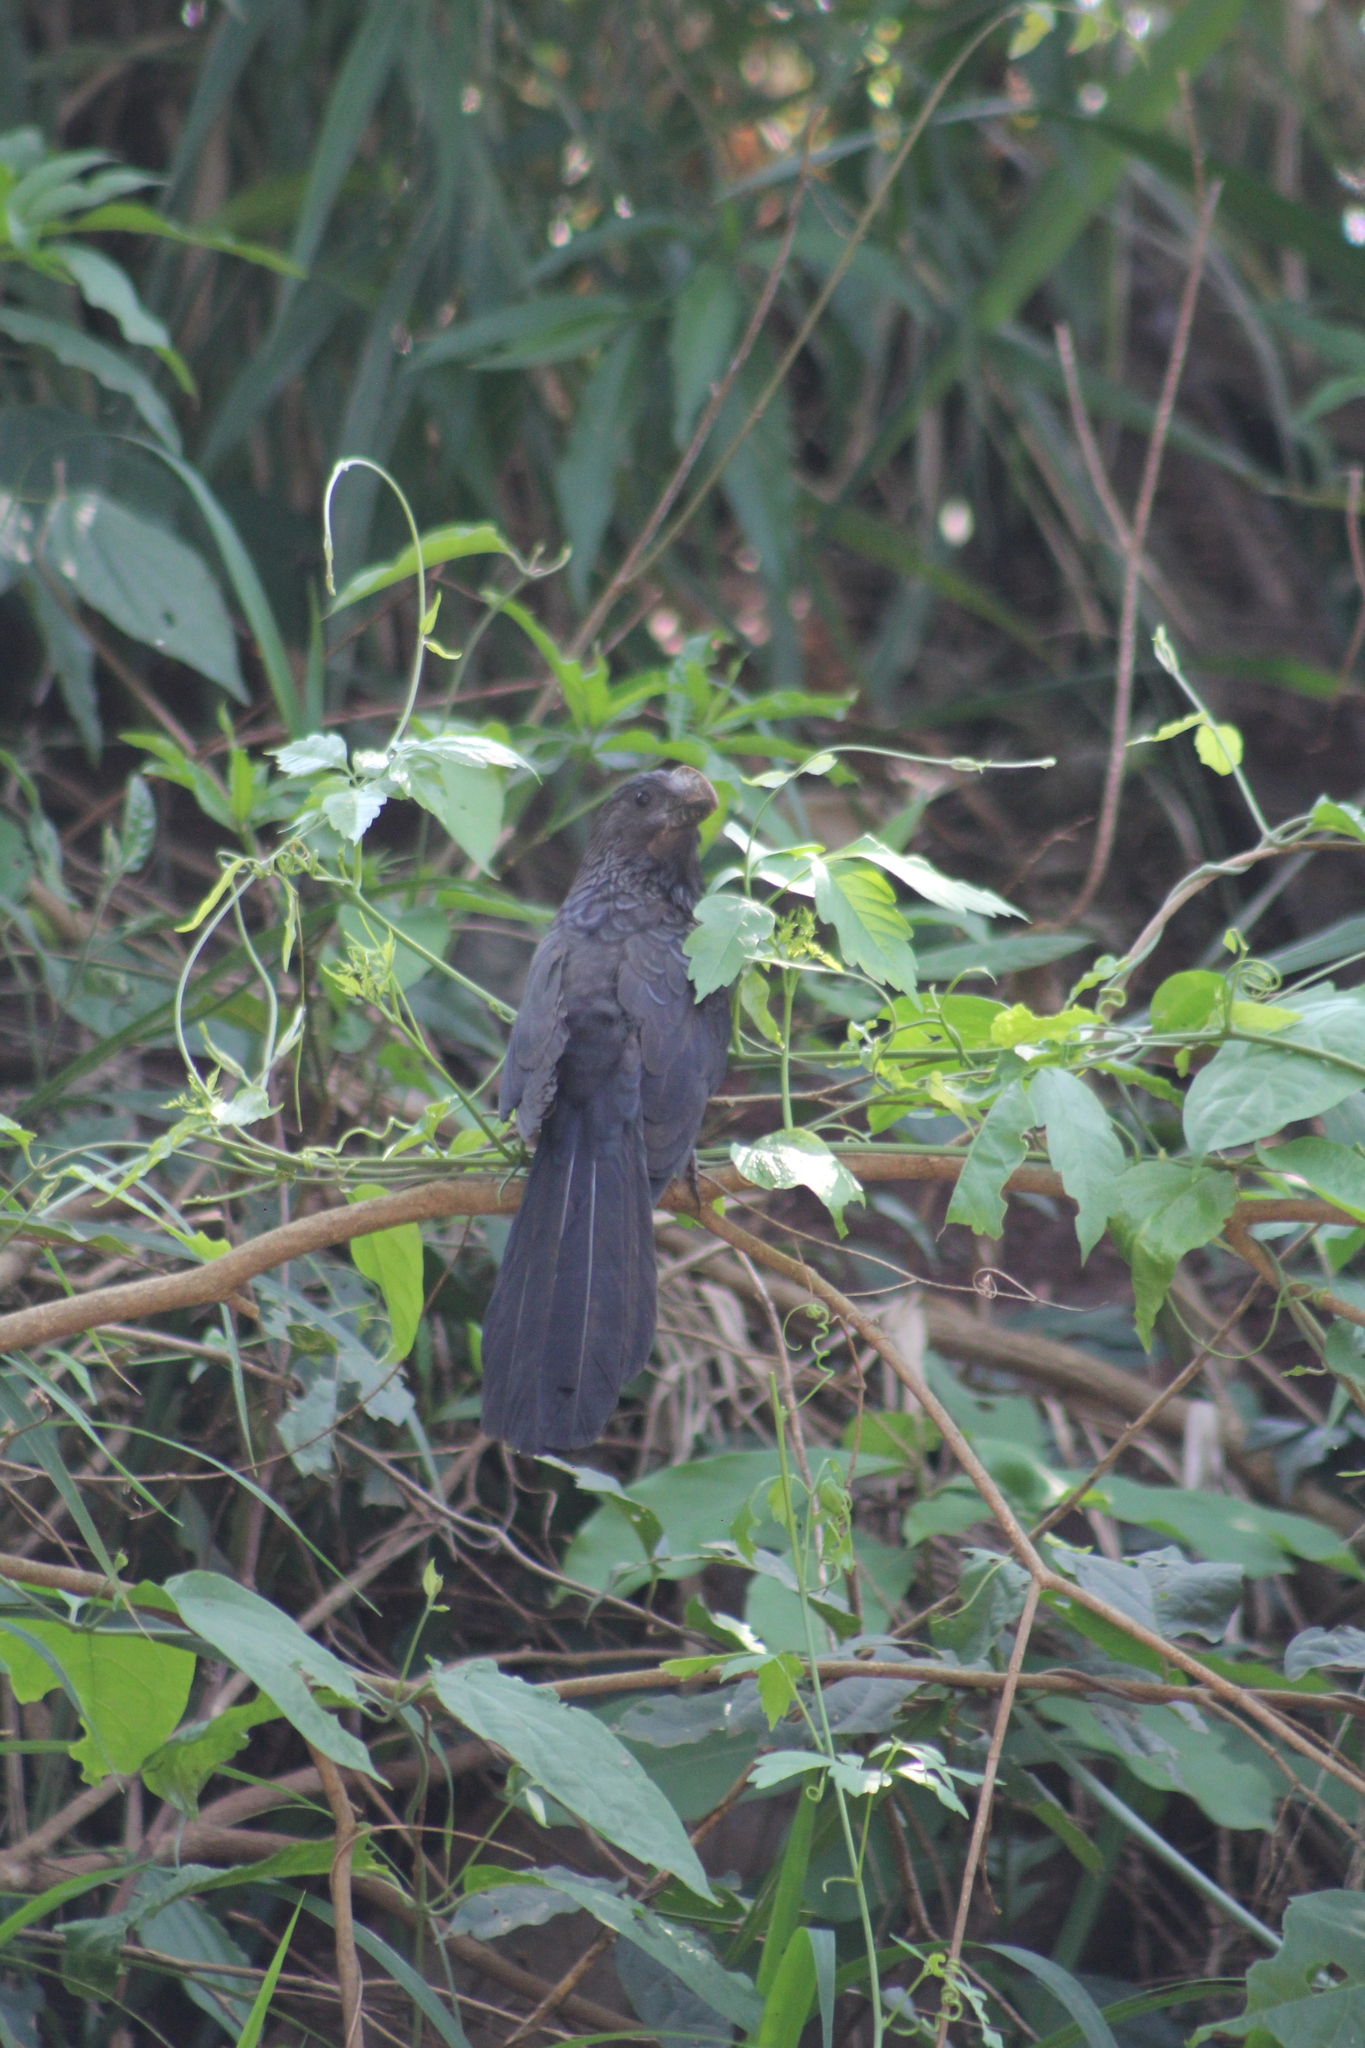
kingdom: Animalia
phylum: Chordata
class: Aves
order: Cuculiformes
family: Cuculidae
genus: Crotophaga
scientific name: Crotophaga ani
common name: Smooth-billed ani
